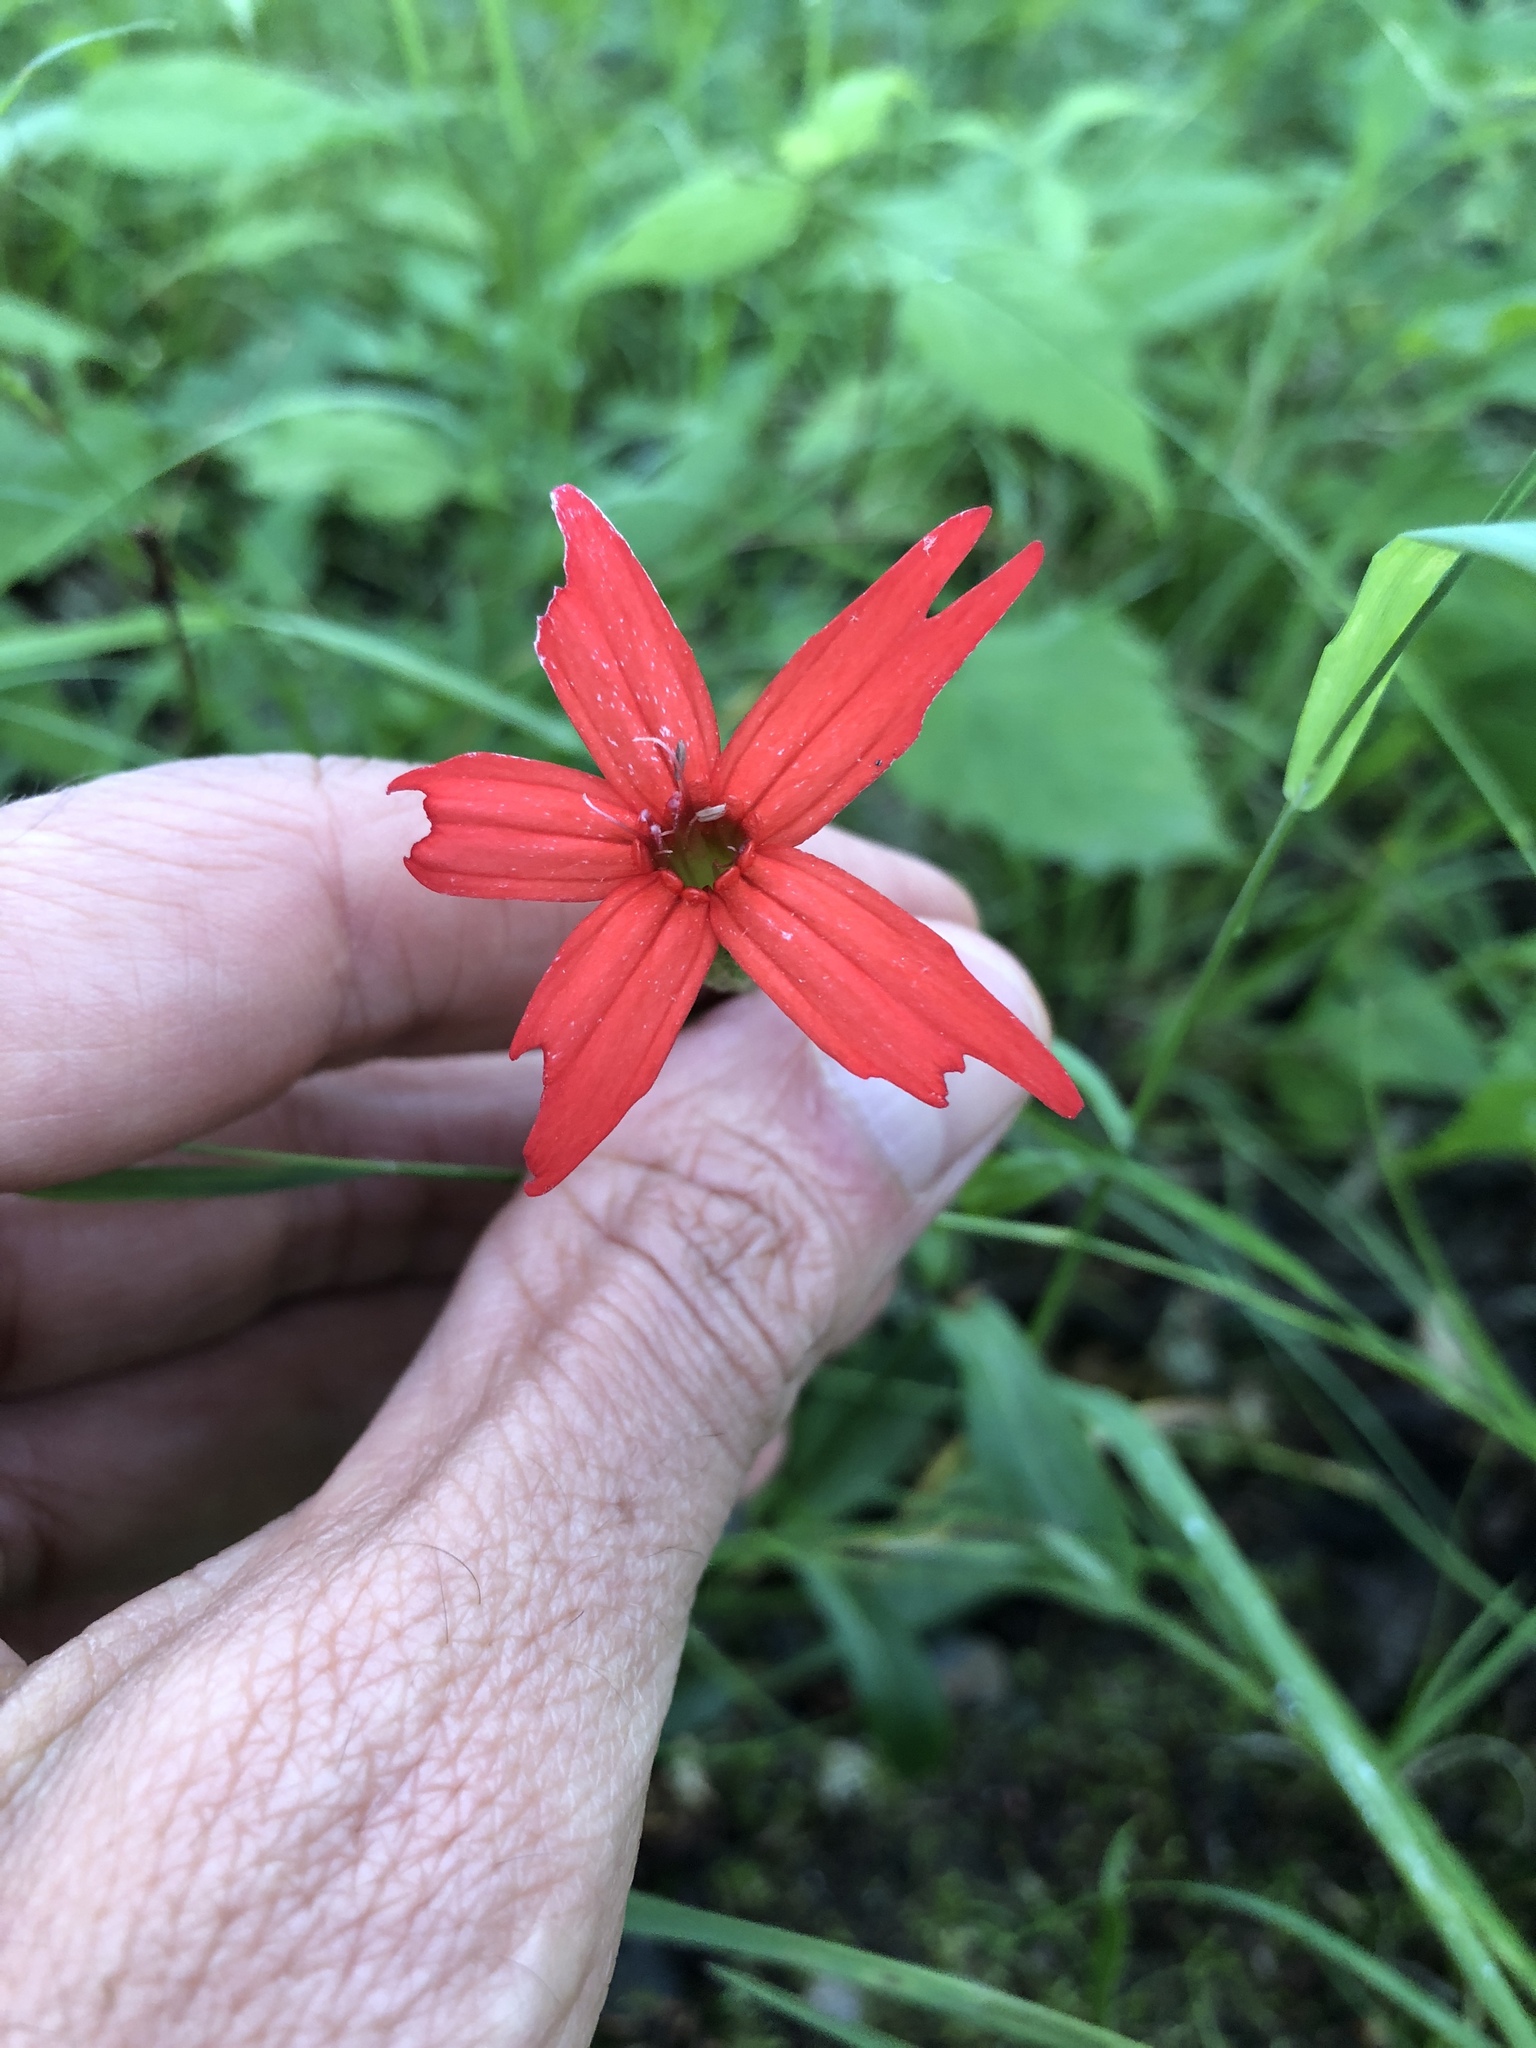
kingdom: Plantae
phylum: Tracheophyta
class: Magnoliopsida
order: Caryophyllales
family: Caryophyllaceae
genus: Silene
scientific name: Silene virginica
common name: Fire-pink
